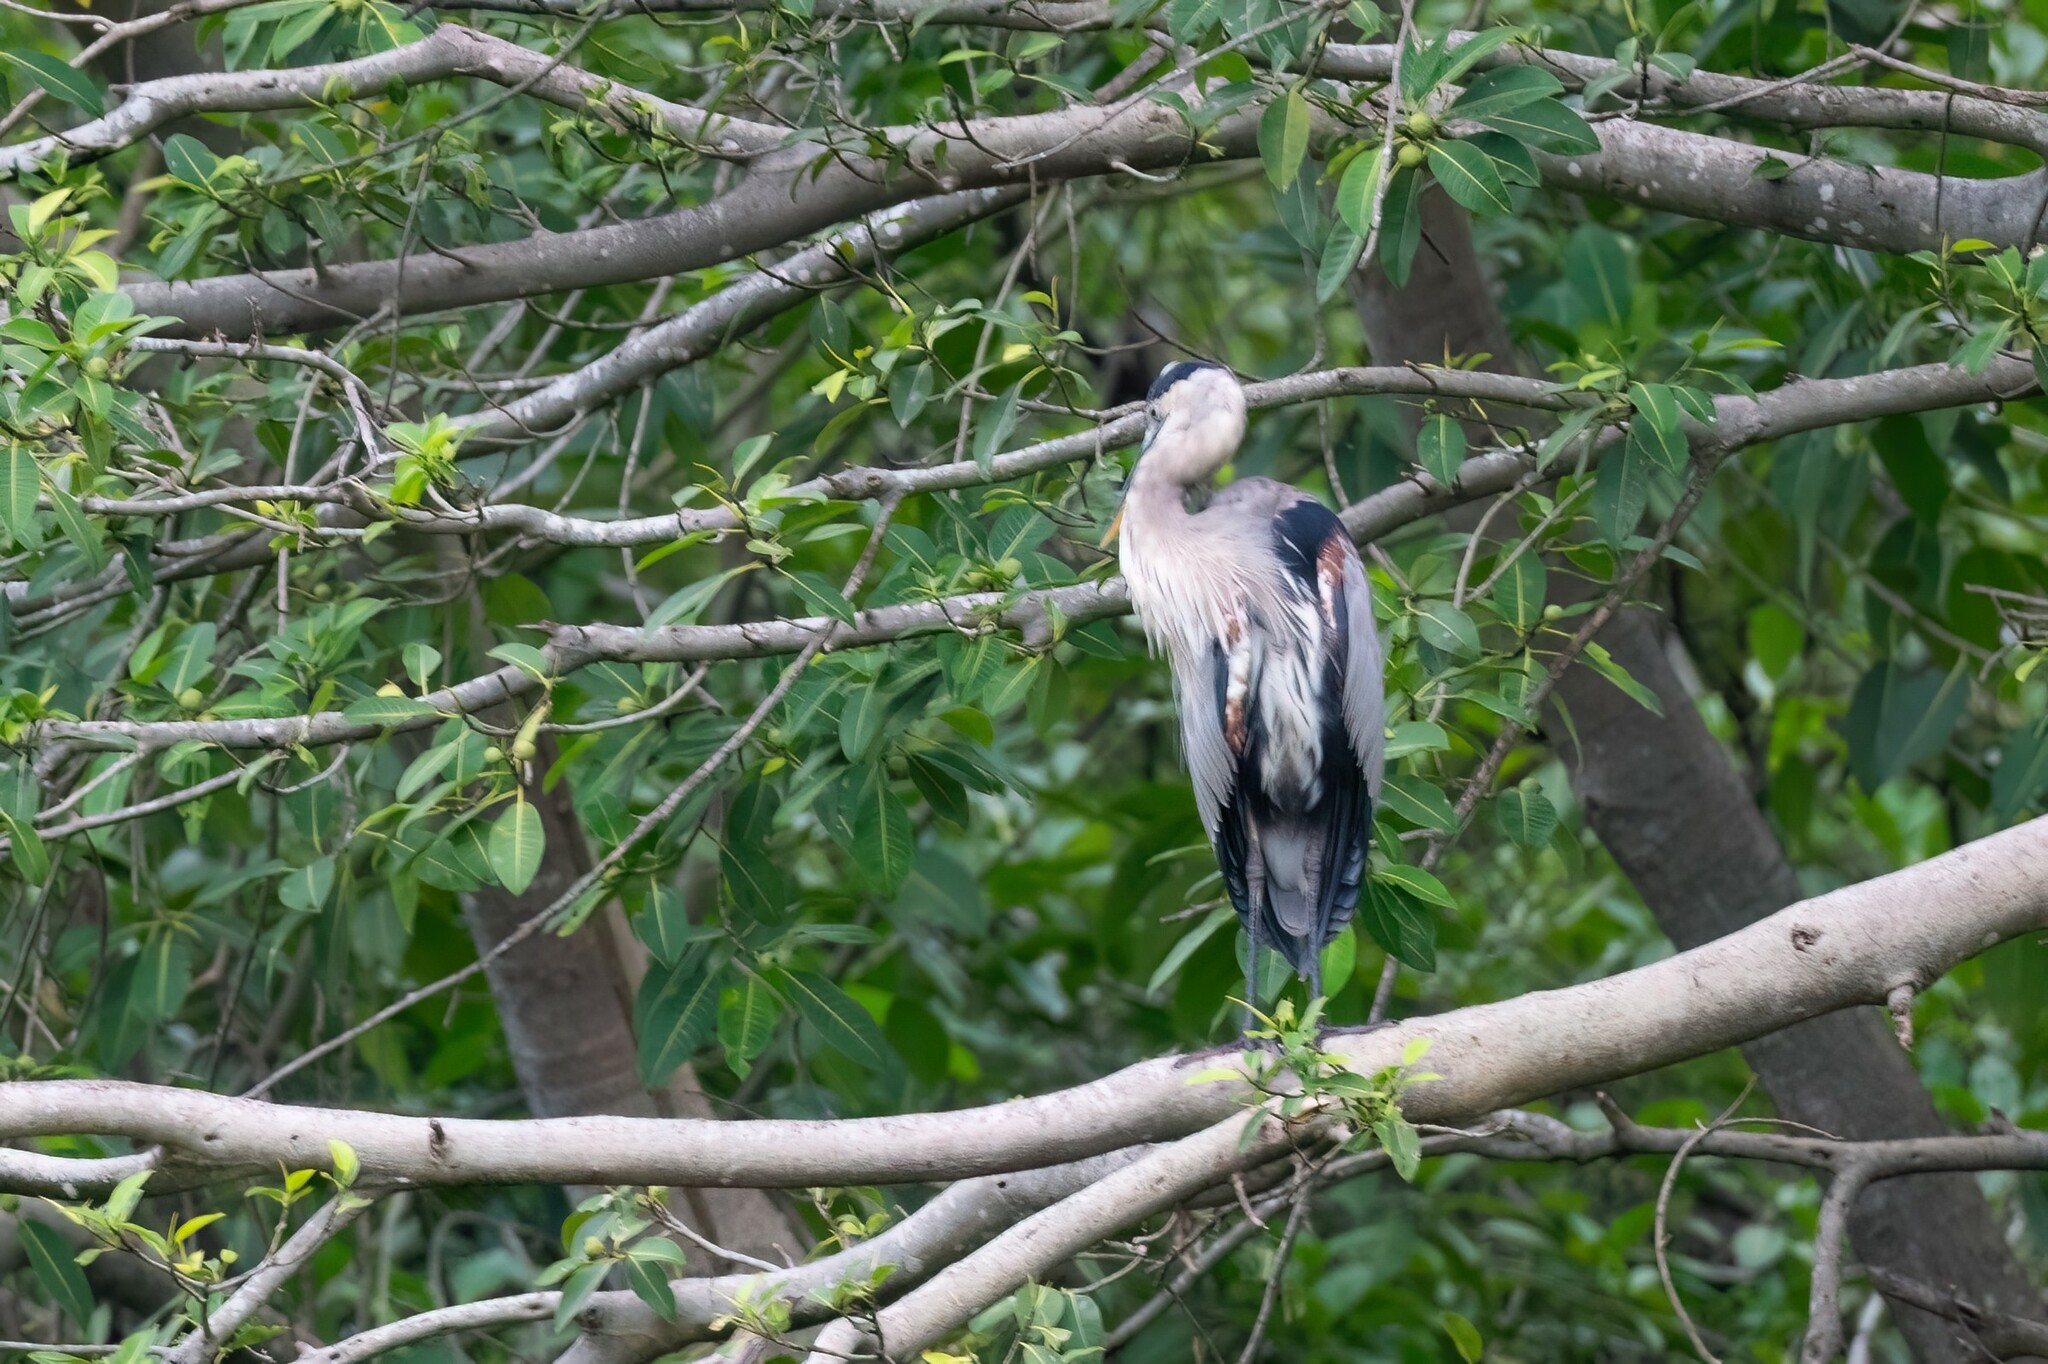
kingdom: Animalia
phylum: Chordata
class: Aves
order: Pelecaniformes
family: Ardeidae
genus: Ardea
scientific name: Ardea herodias
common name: Great blue heron
